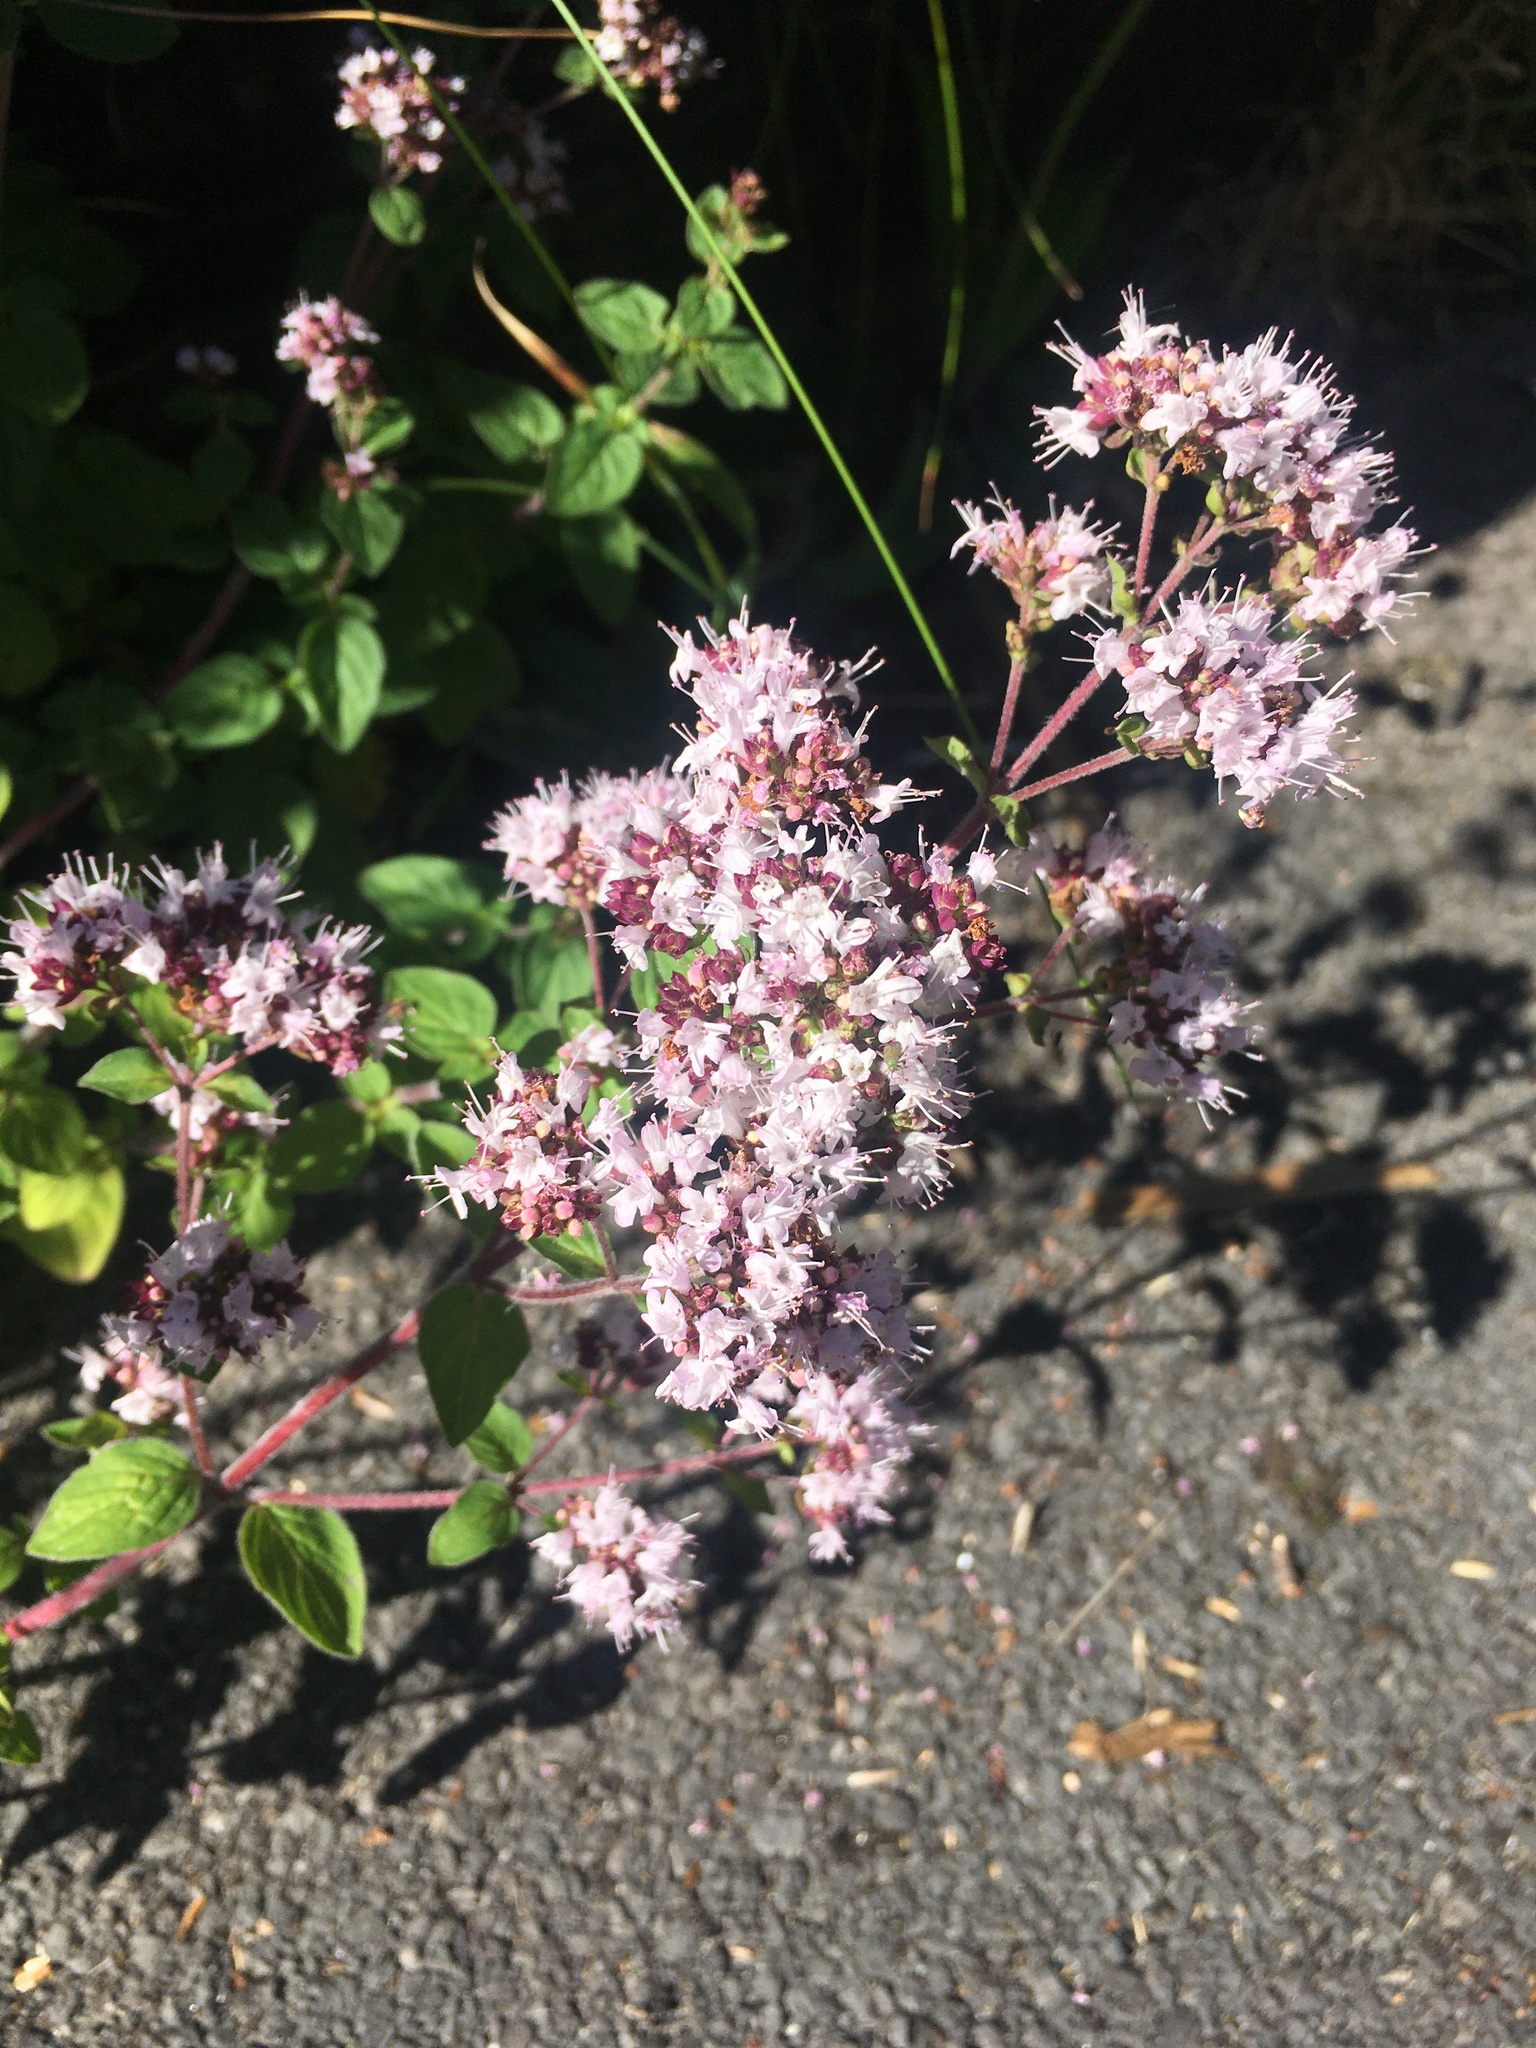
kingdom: Plantae
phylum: Tracheophyta
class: Magnoliopsida
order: Lamiales
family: Lamiaceae
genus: Origanum
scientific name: Origanum vulgare
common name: Wild marjoram
